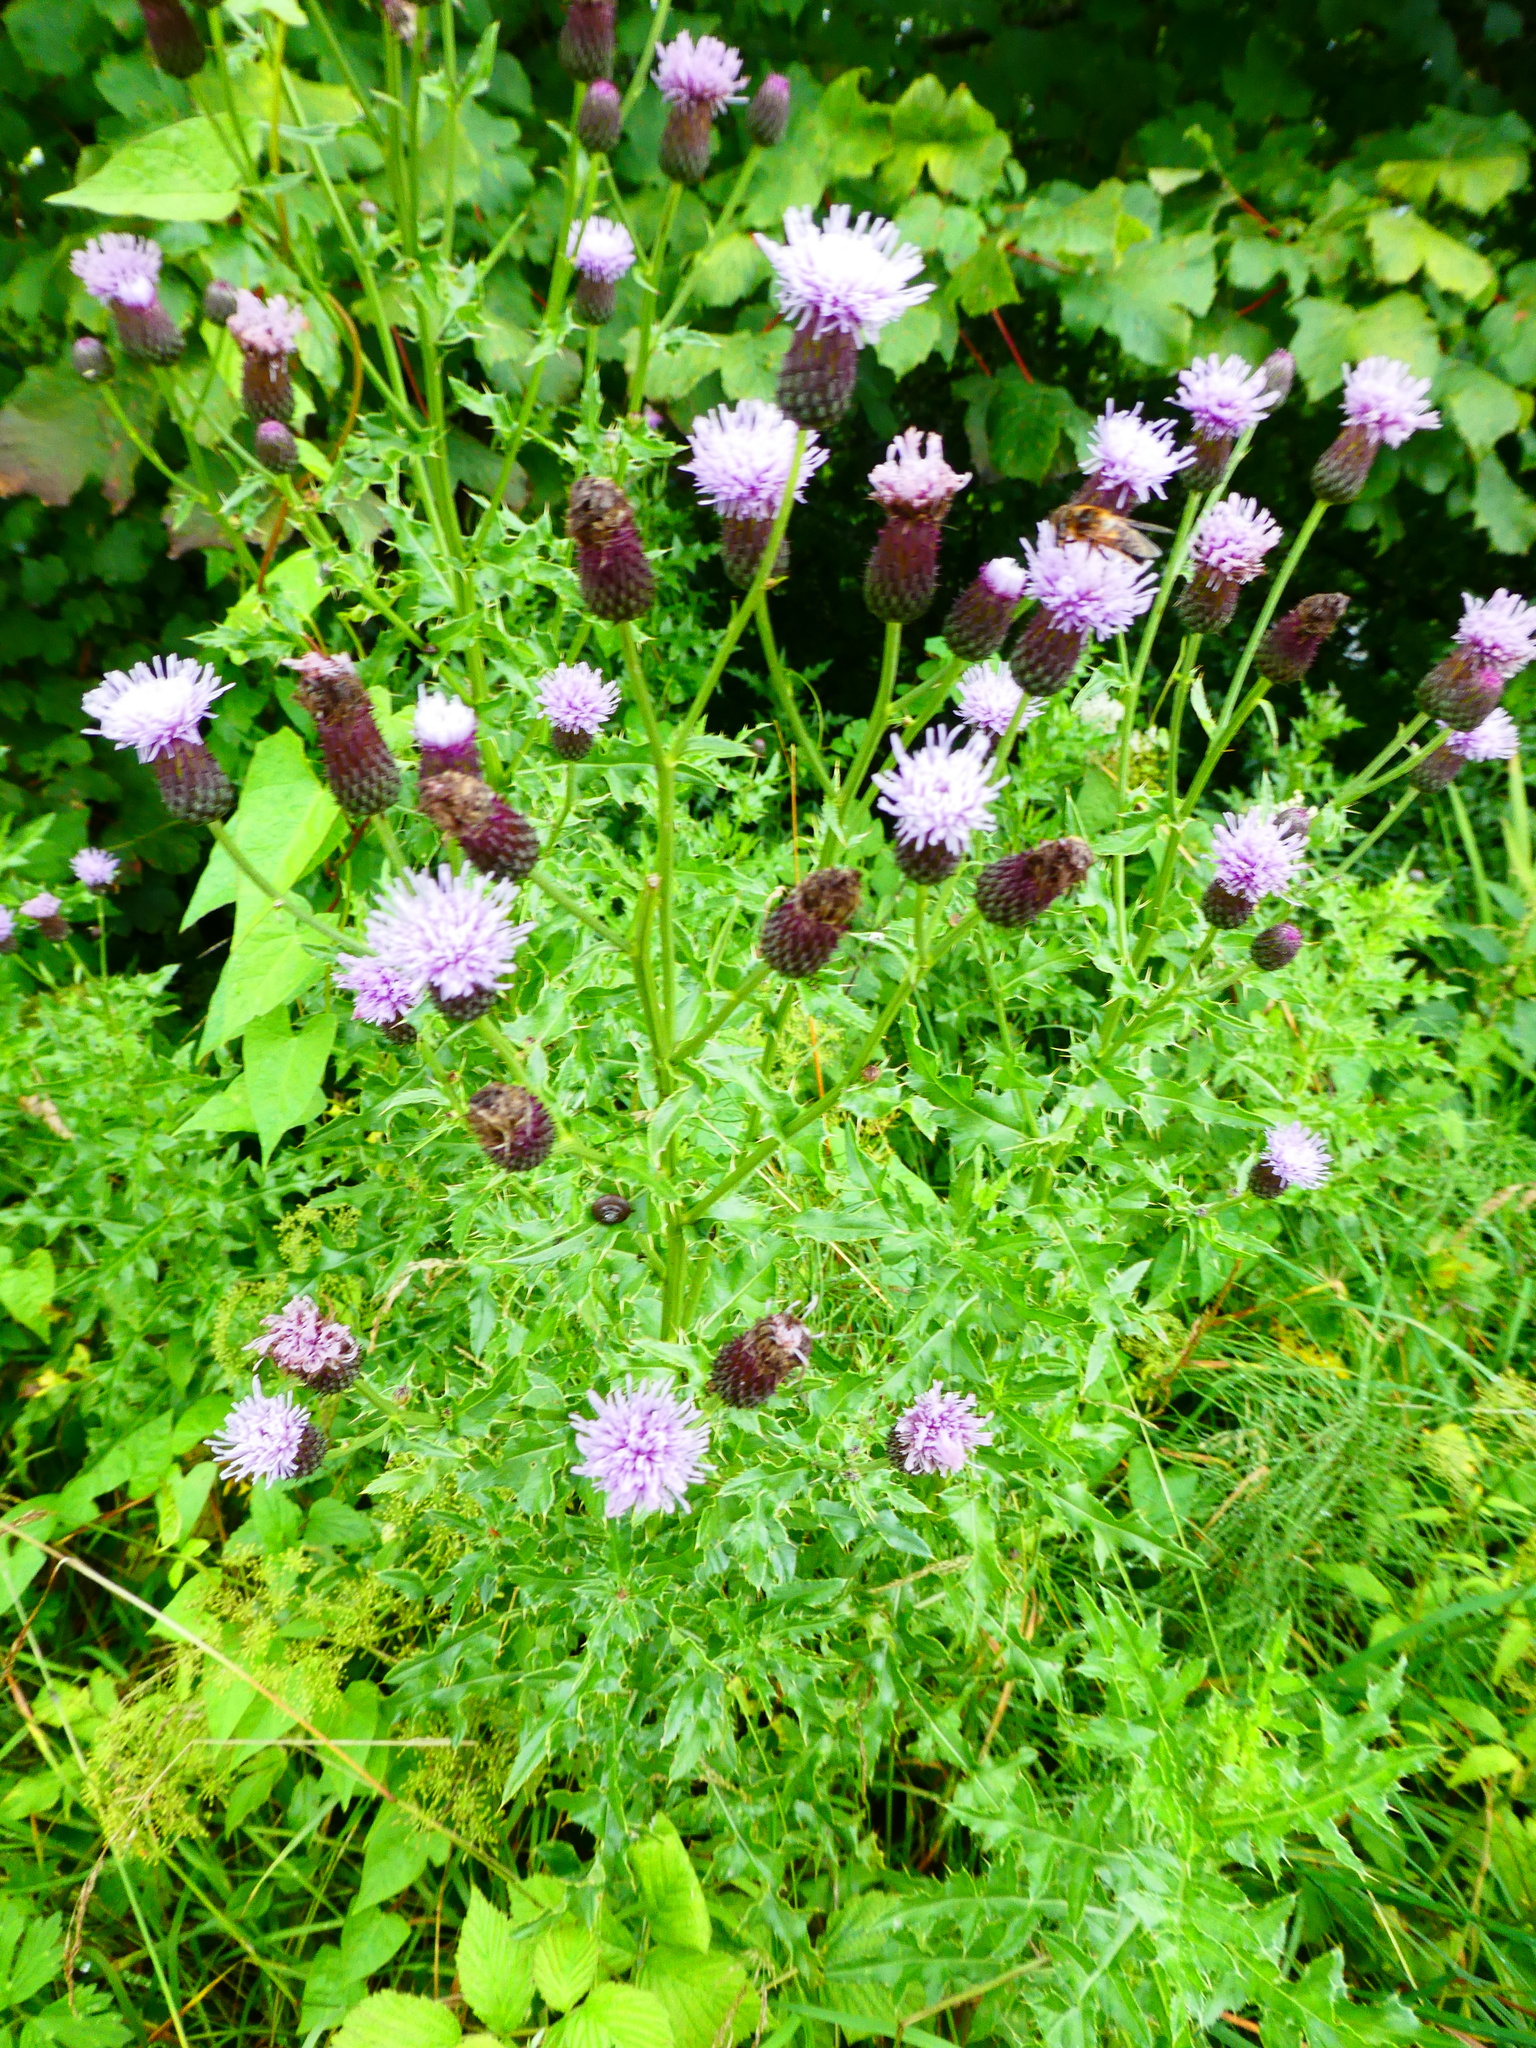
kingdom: Plantae
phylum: Tracheophyta
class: Magnoliopsida
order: Asterales
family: Asteraceae
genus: Cirsium
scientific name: Cirsium arvense
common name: Creeping thistle
